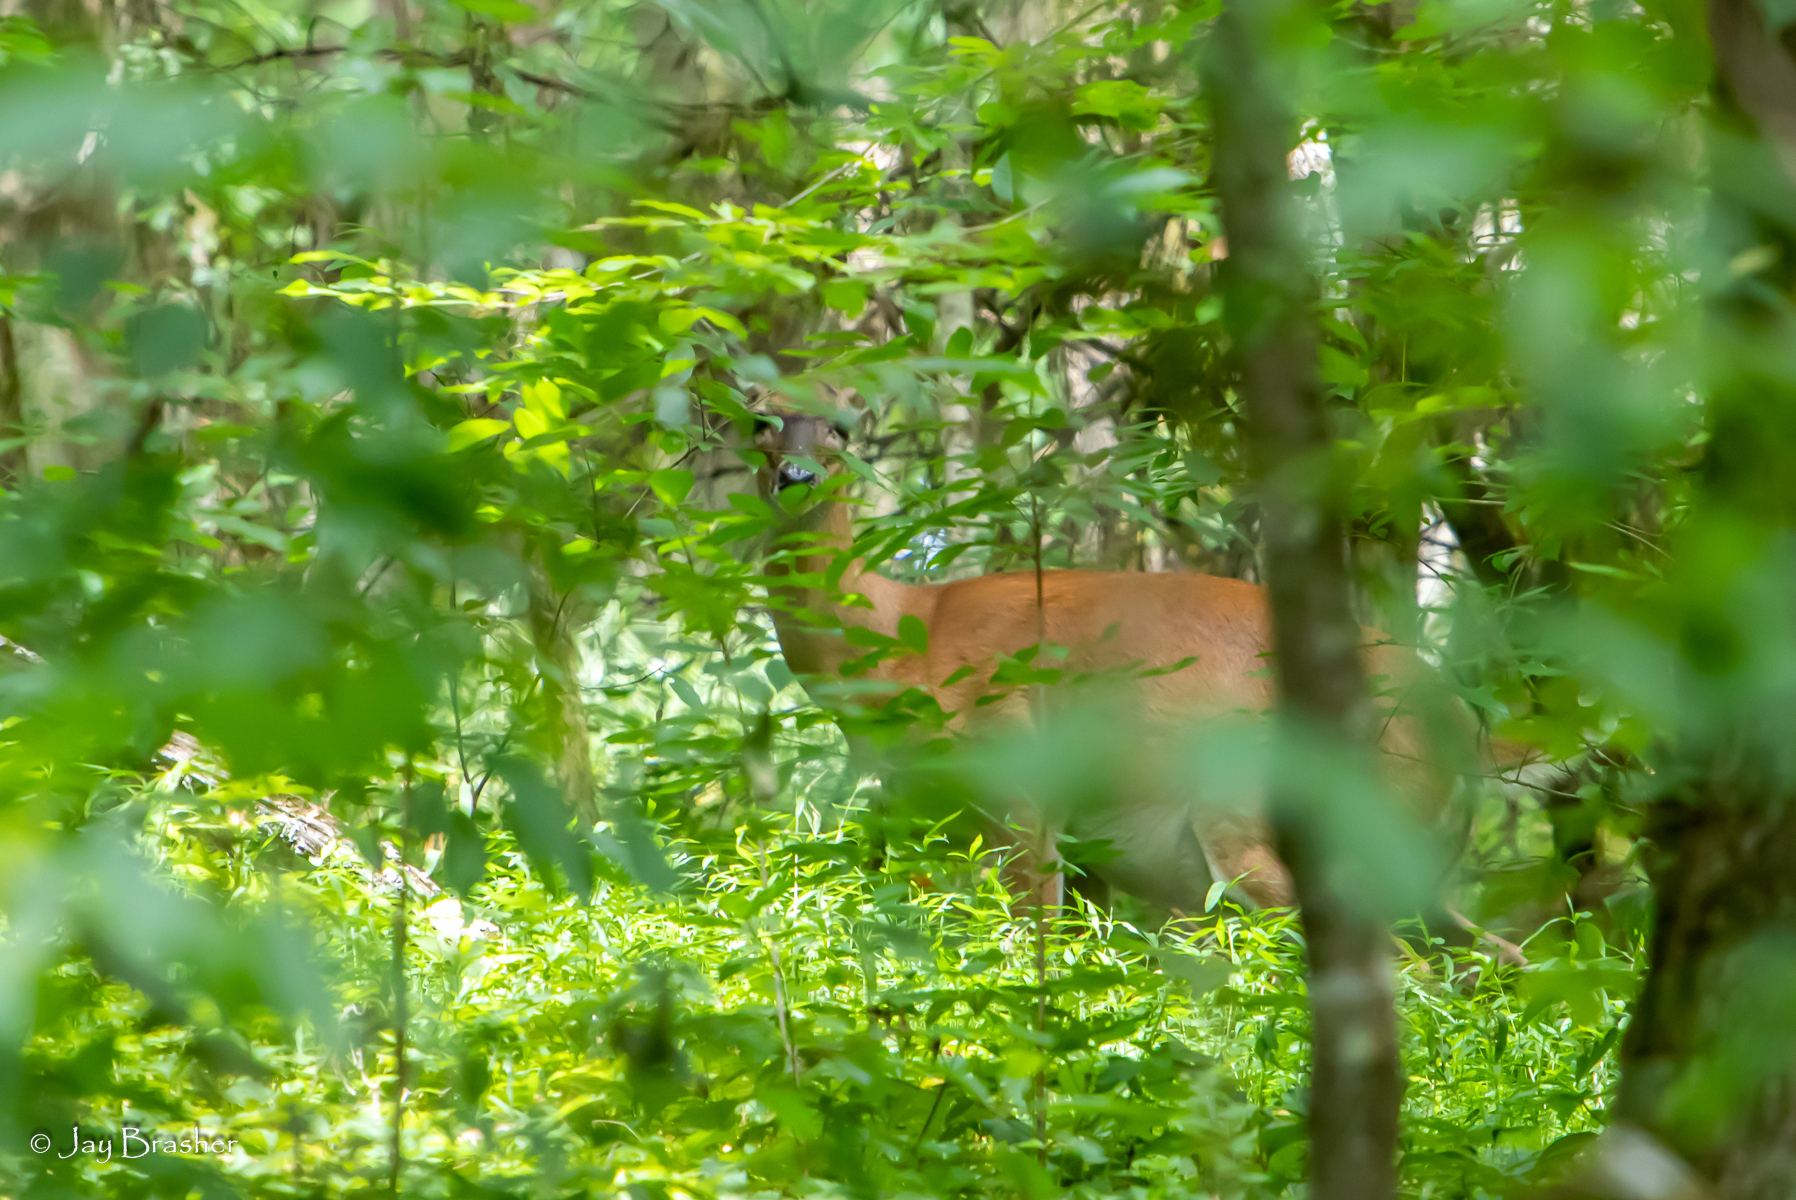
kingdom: Animalia
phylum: Chordata
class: Mammalia
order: Artiodactyla
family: Cervidae
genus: Odocoileus
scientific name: Odocoileus virginianus
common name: White-tailed deer
